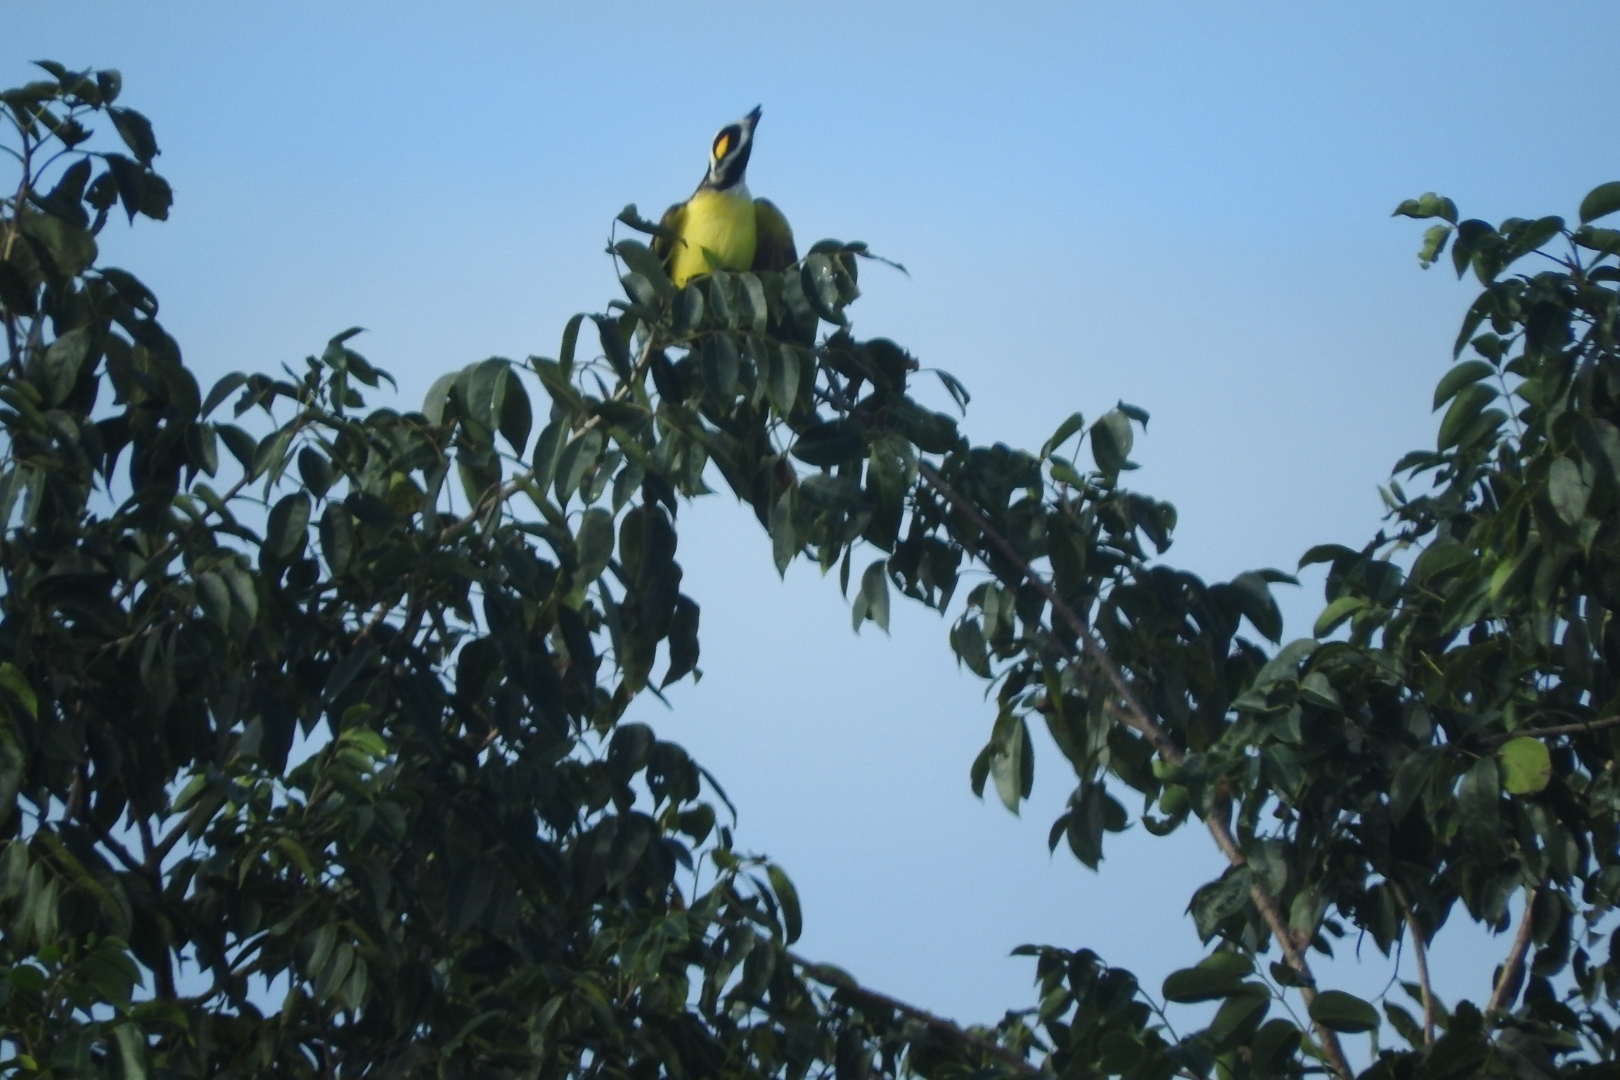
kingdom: Animalia
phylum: Chordata
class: Aves
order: Passeriformes
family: Tyrannidae
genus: Myiozetetes
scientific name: Myiozetetes similis
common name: Social flycatcher
